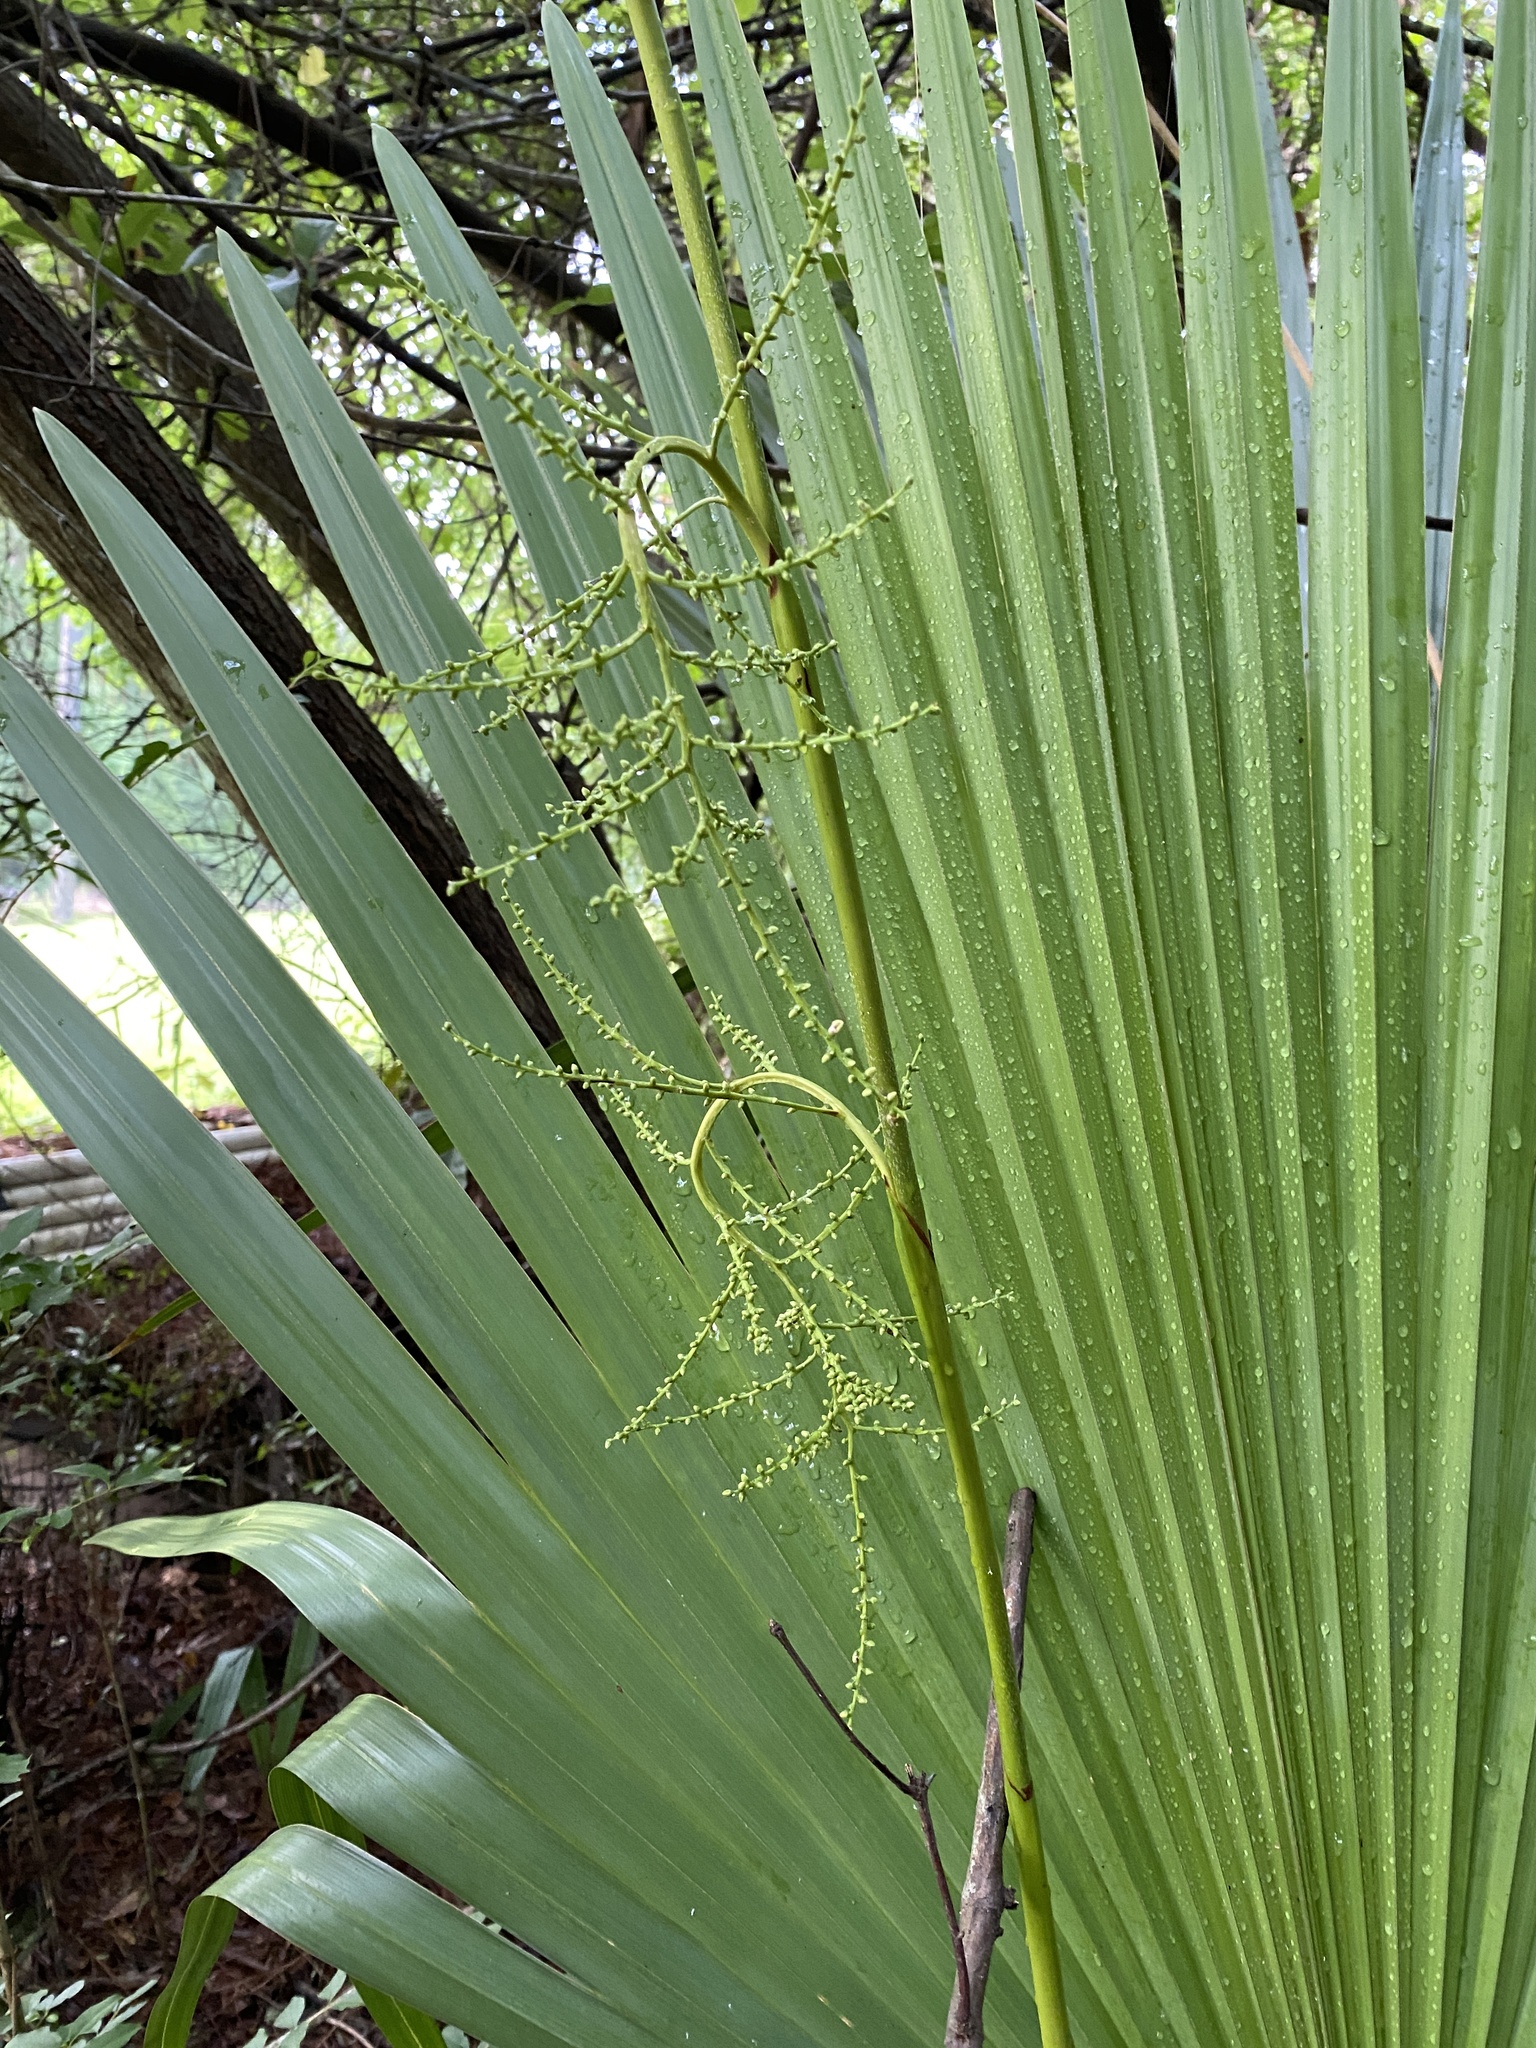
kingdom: Plantae
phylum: Tracheophyta
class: Liliopsida
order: Arecales
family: Arecaceae
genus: Sabal
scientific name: Sabal minor
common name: Dwarf palmetto
